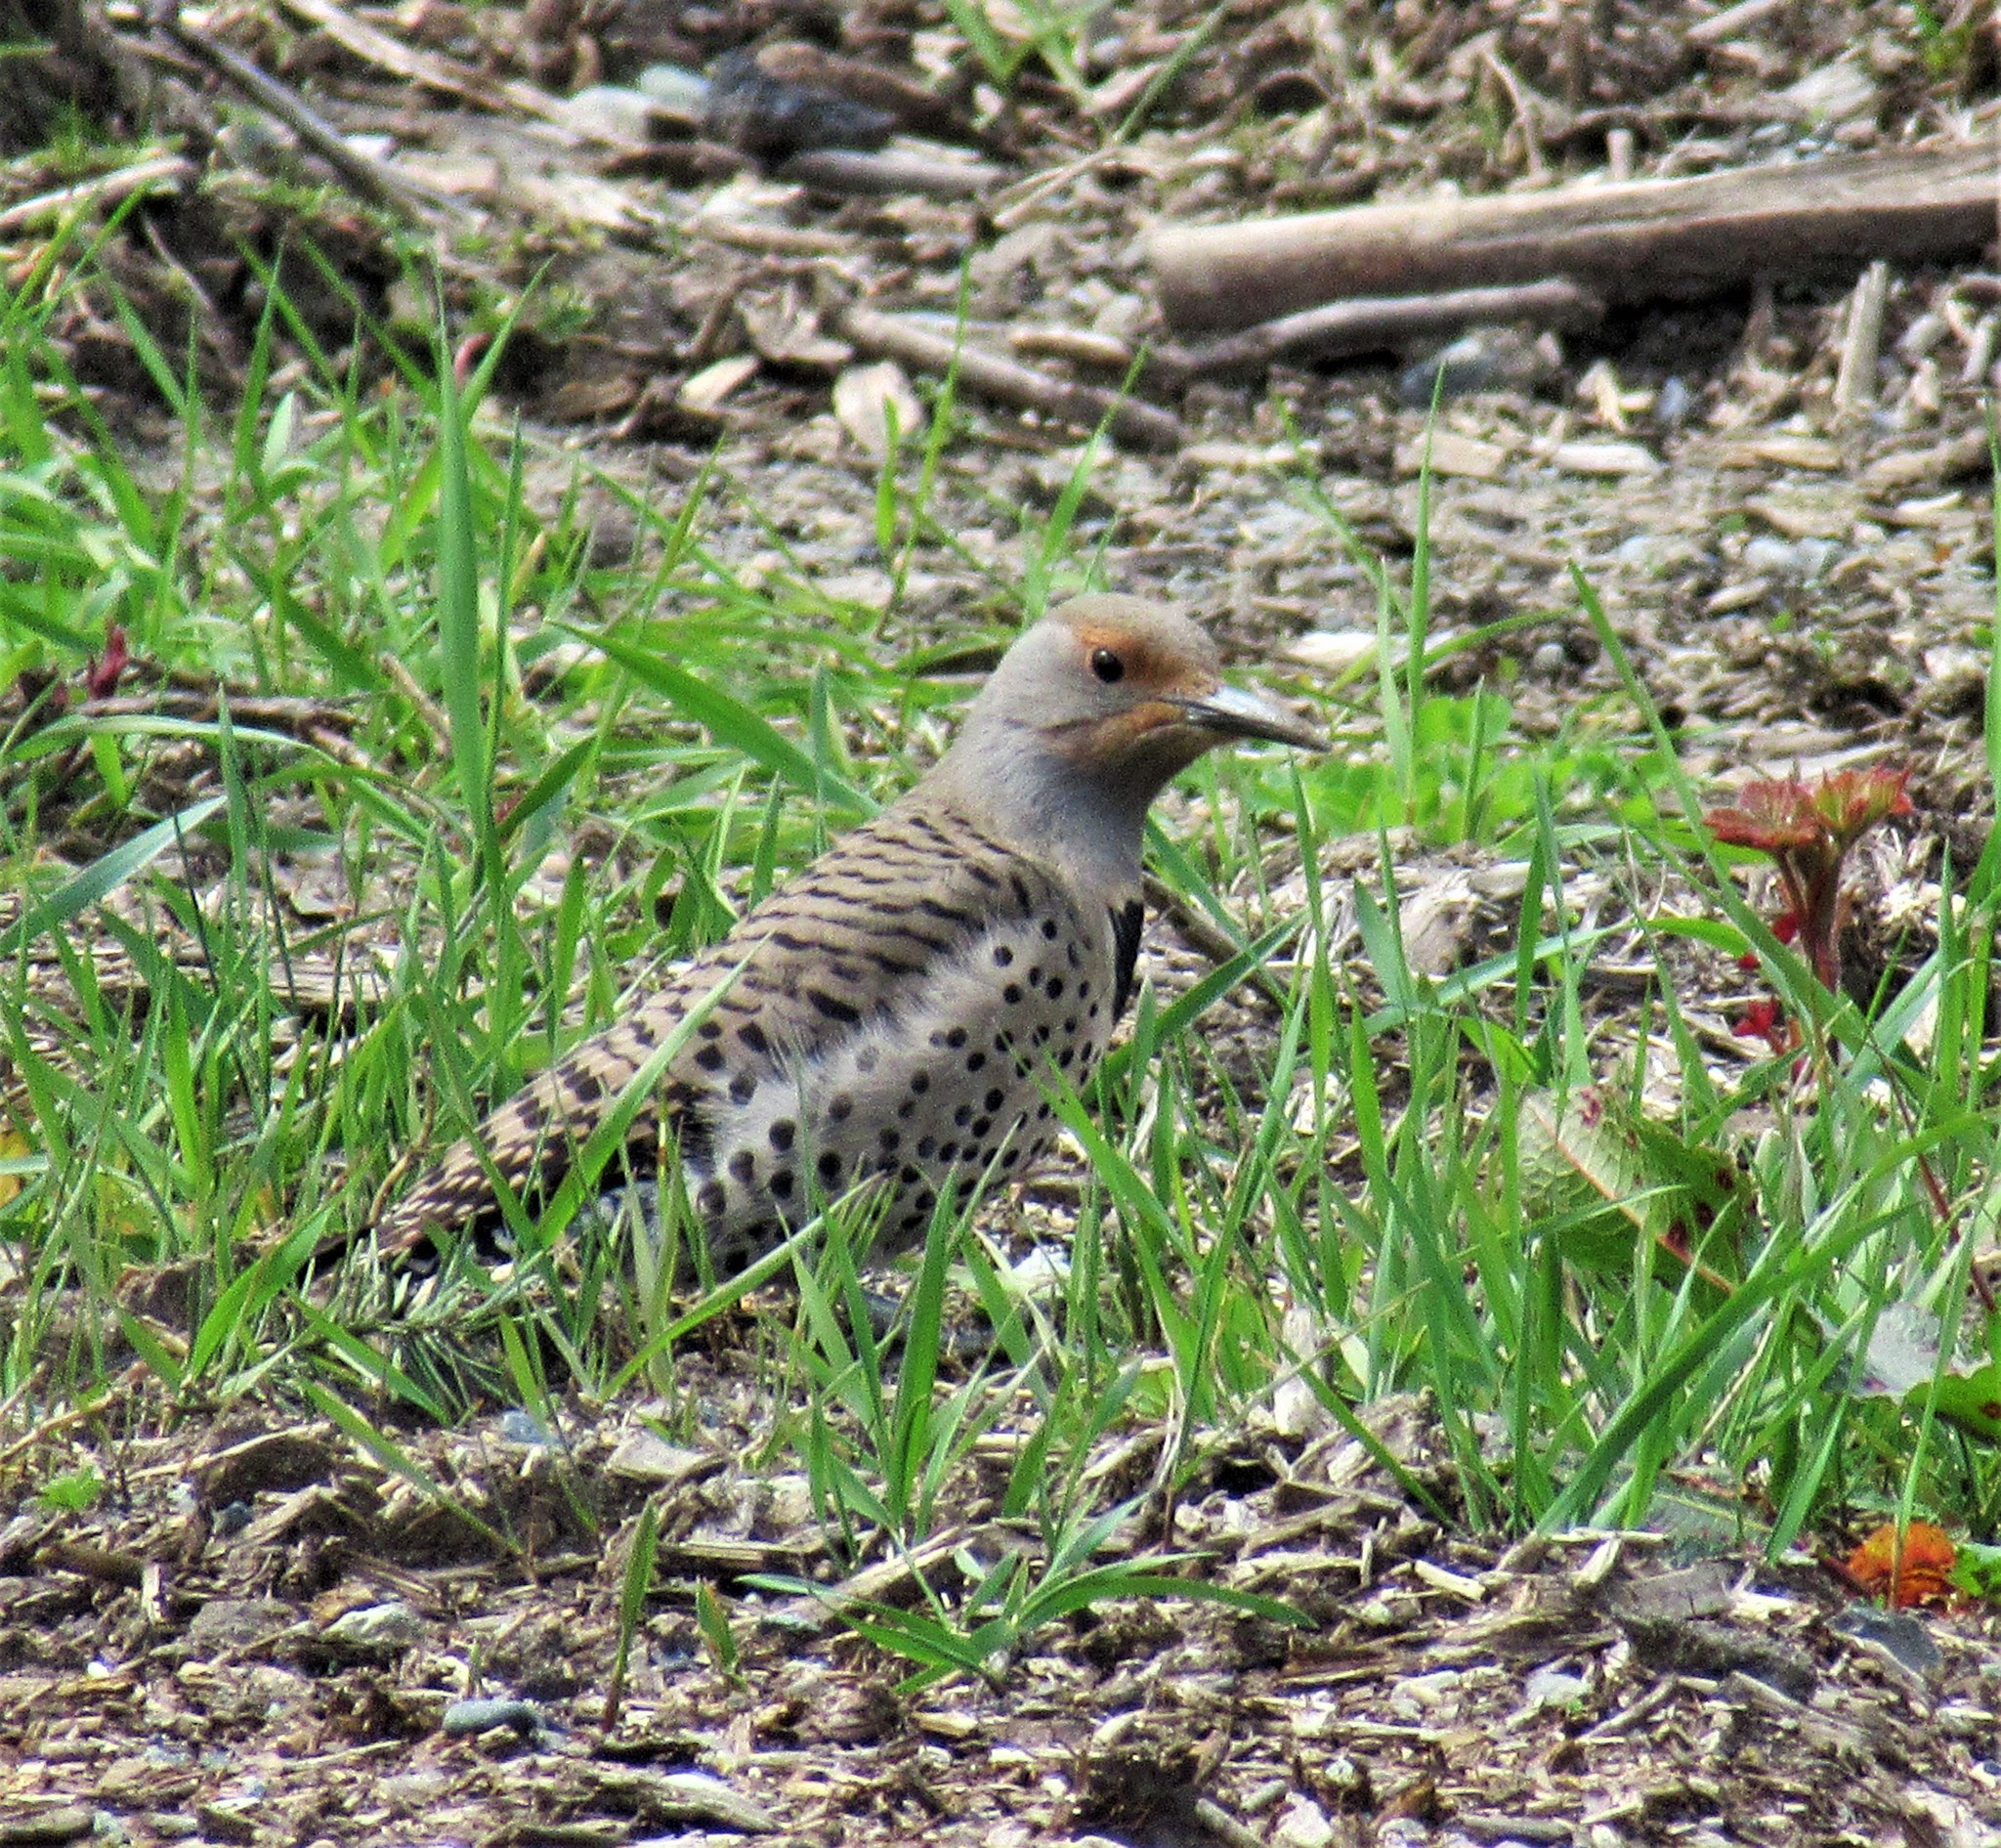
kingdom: Animalia
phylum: Chordata
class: Aves
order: Piciformes
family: Picidae
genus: Colaptes
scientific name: Colaptes auratus
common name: Northern flicker
